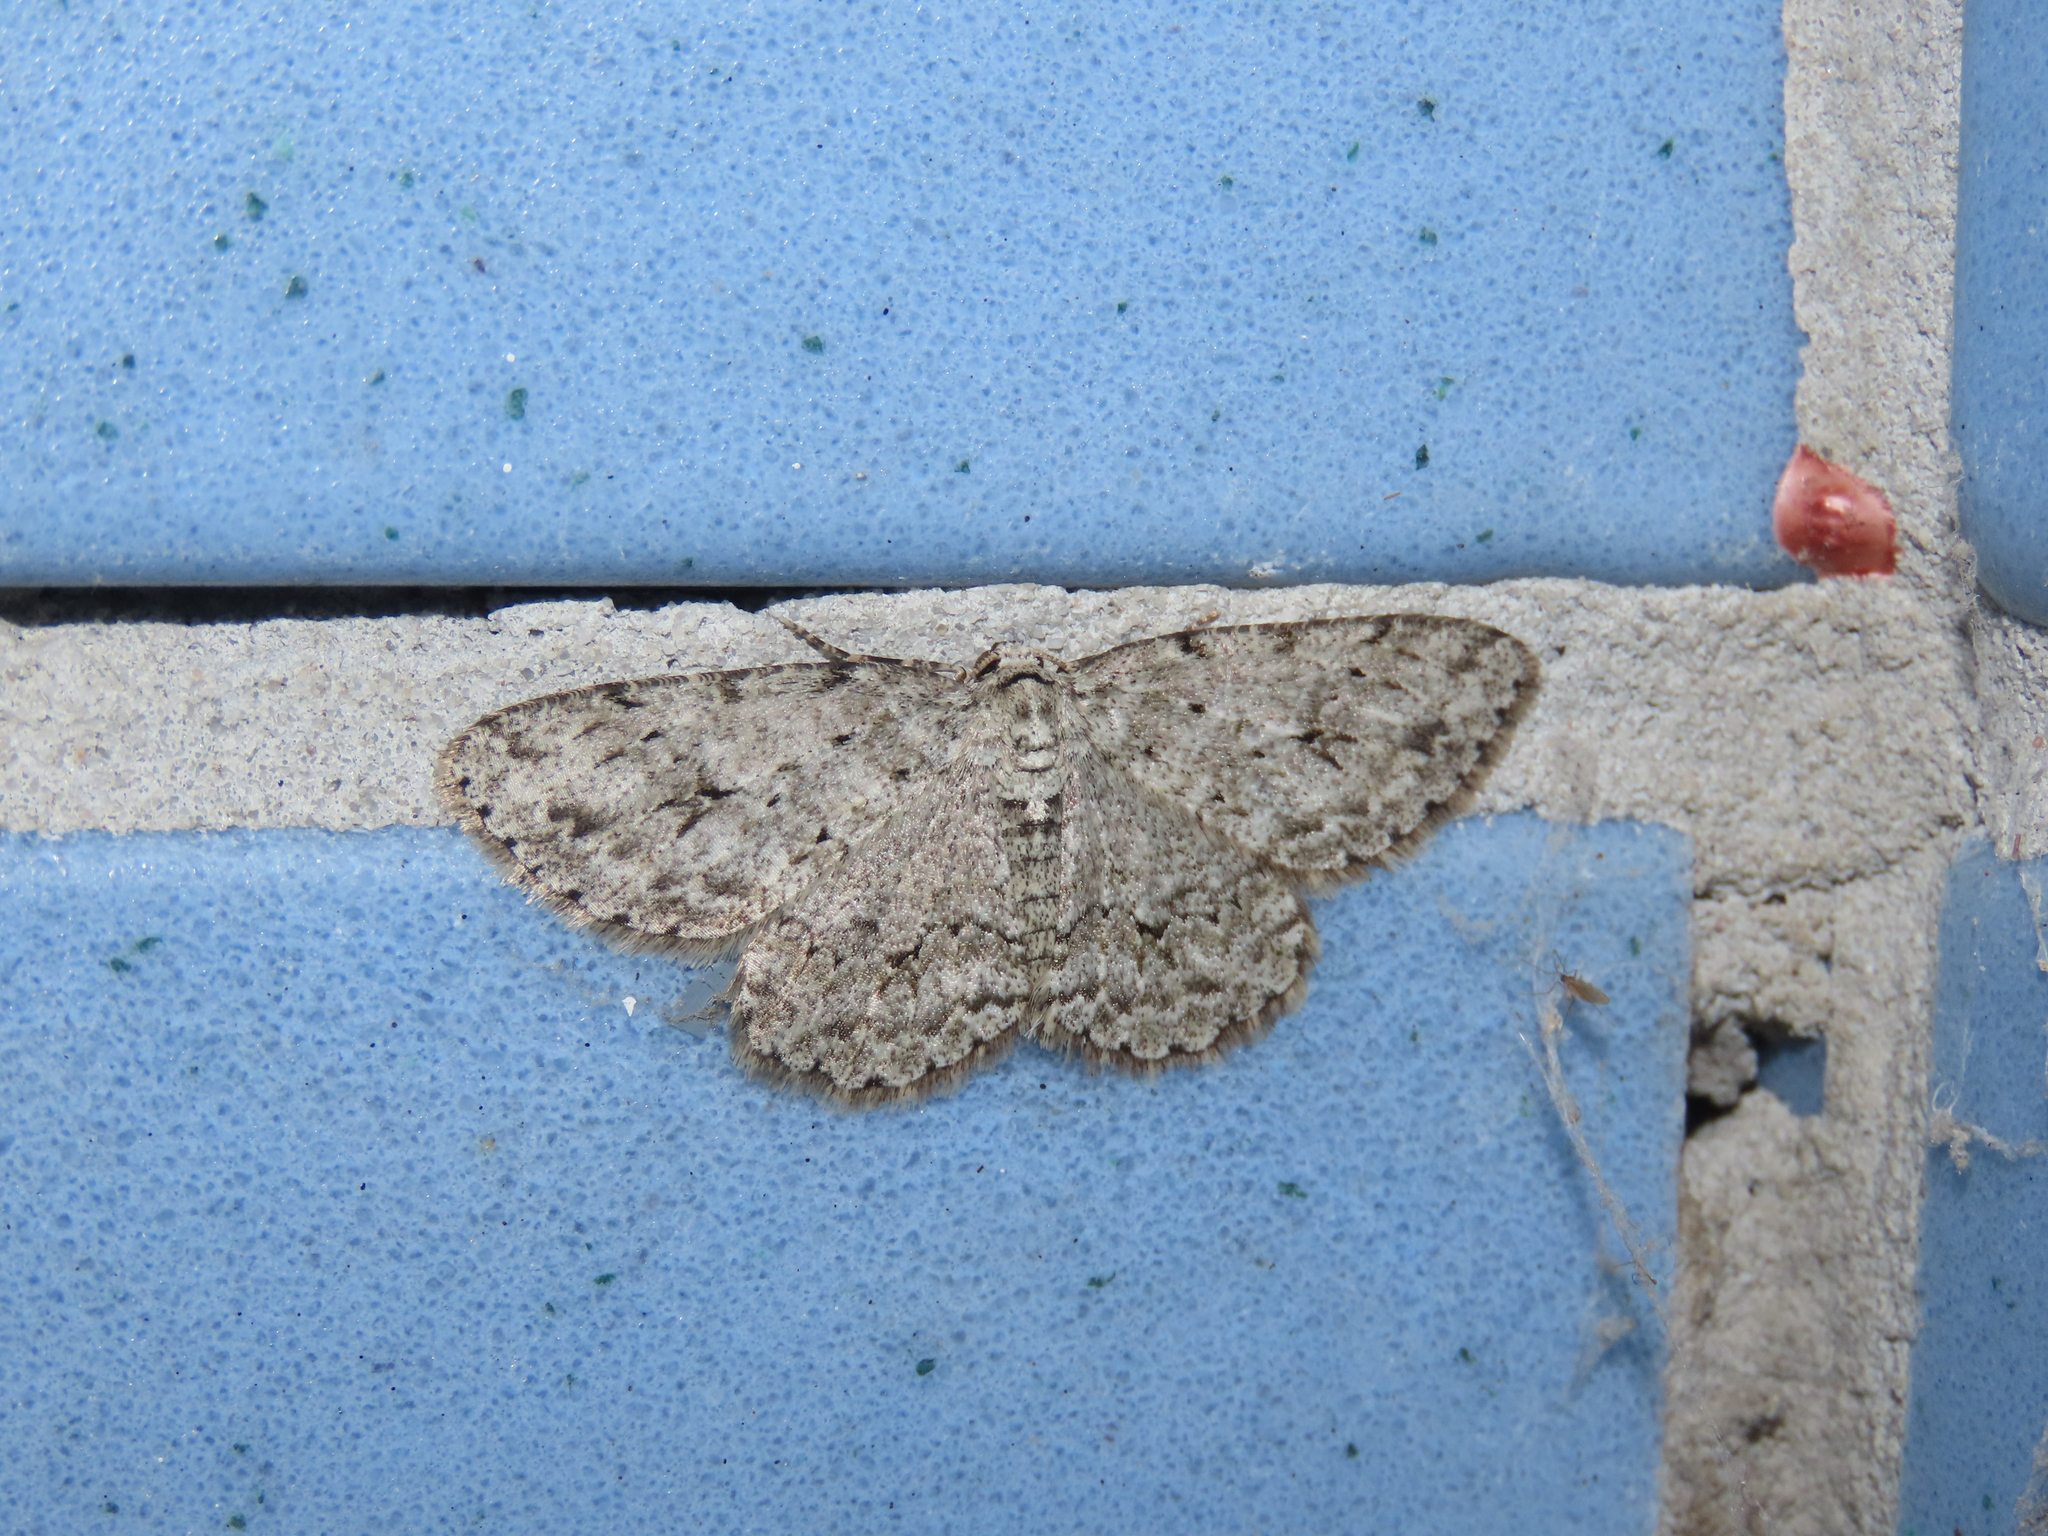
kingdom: Animalia
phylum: Arthropoda
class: Insecta
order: Lepidoptera
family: Geometridae
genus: Ectropis
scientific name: Ectropis crepuscularia
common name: Engrailed
